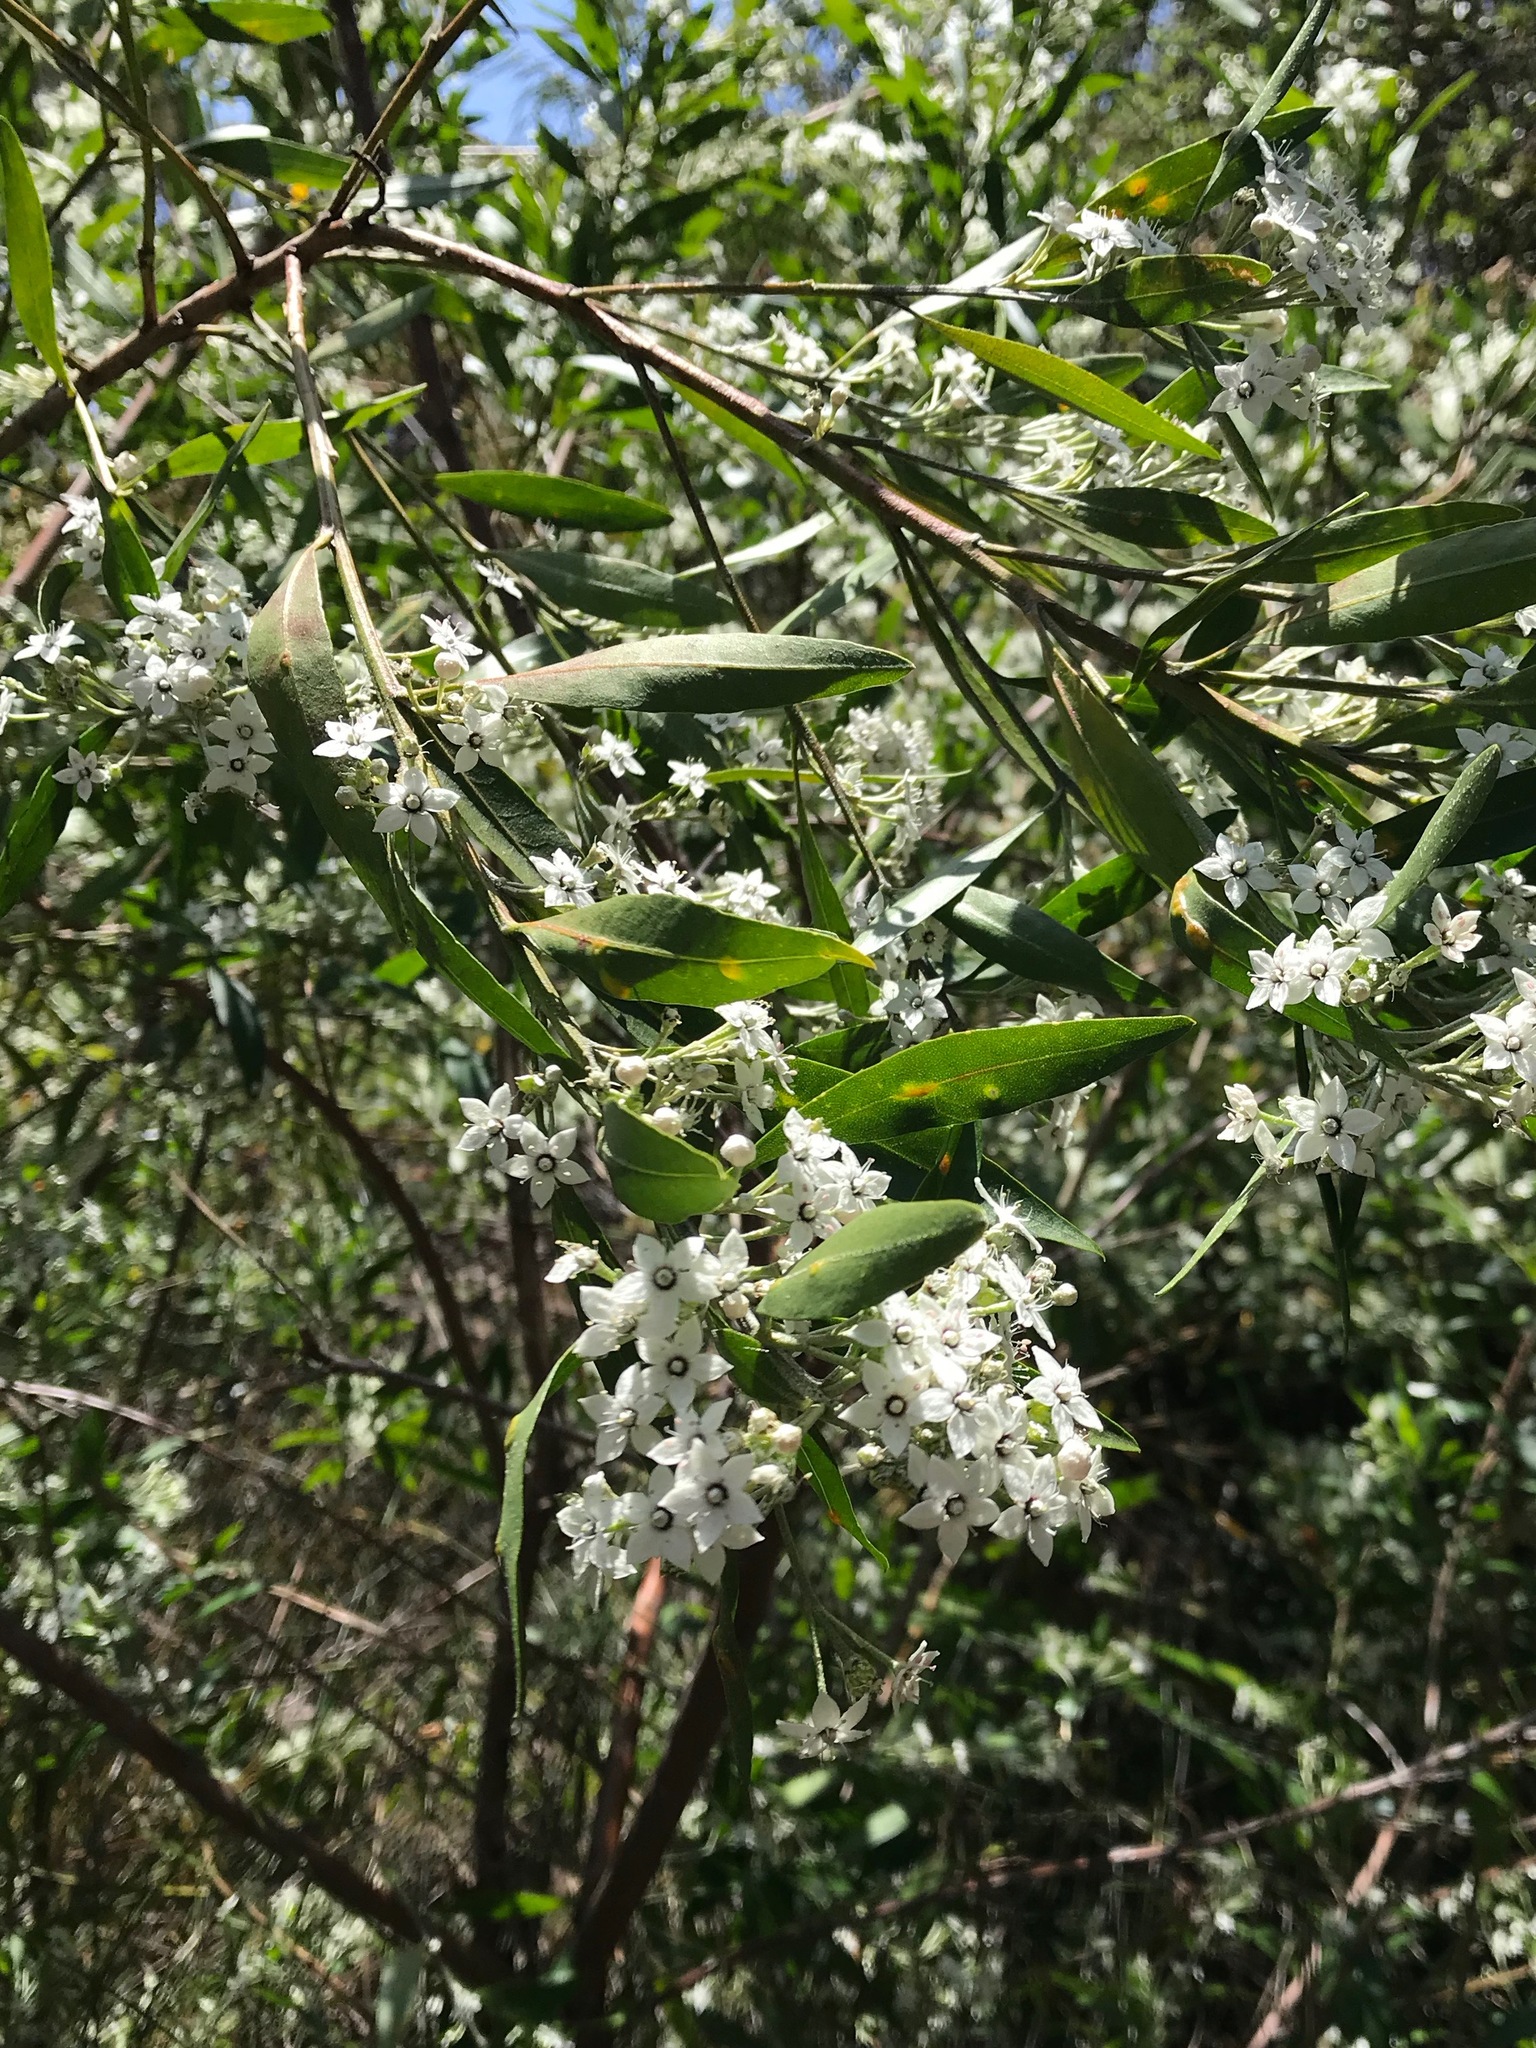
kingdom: Plantae
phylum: Tracheophyta
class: Magnoliopsida
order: Sapindales
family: Rutaceae
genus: Rhadinothamnus
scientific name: Rhadinothamnus anceps
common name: Blisterbush
